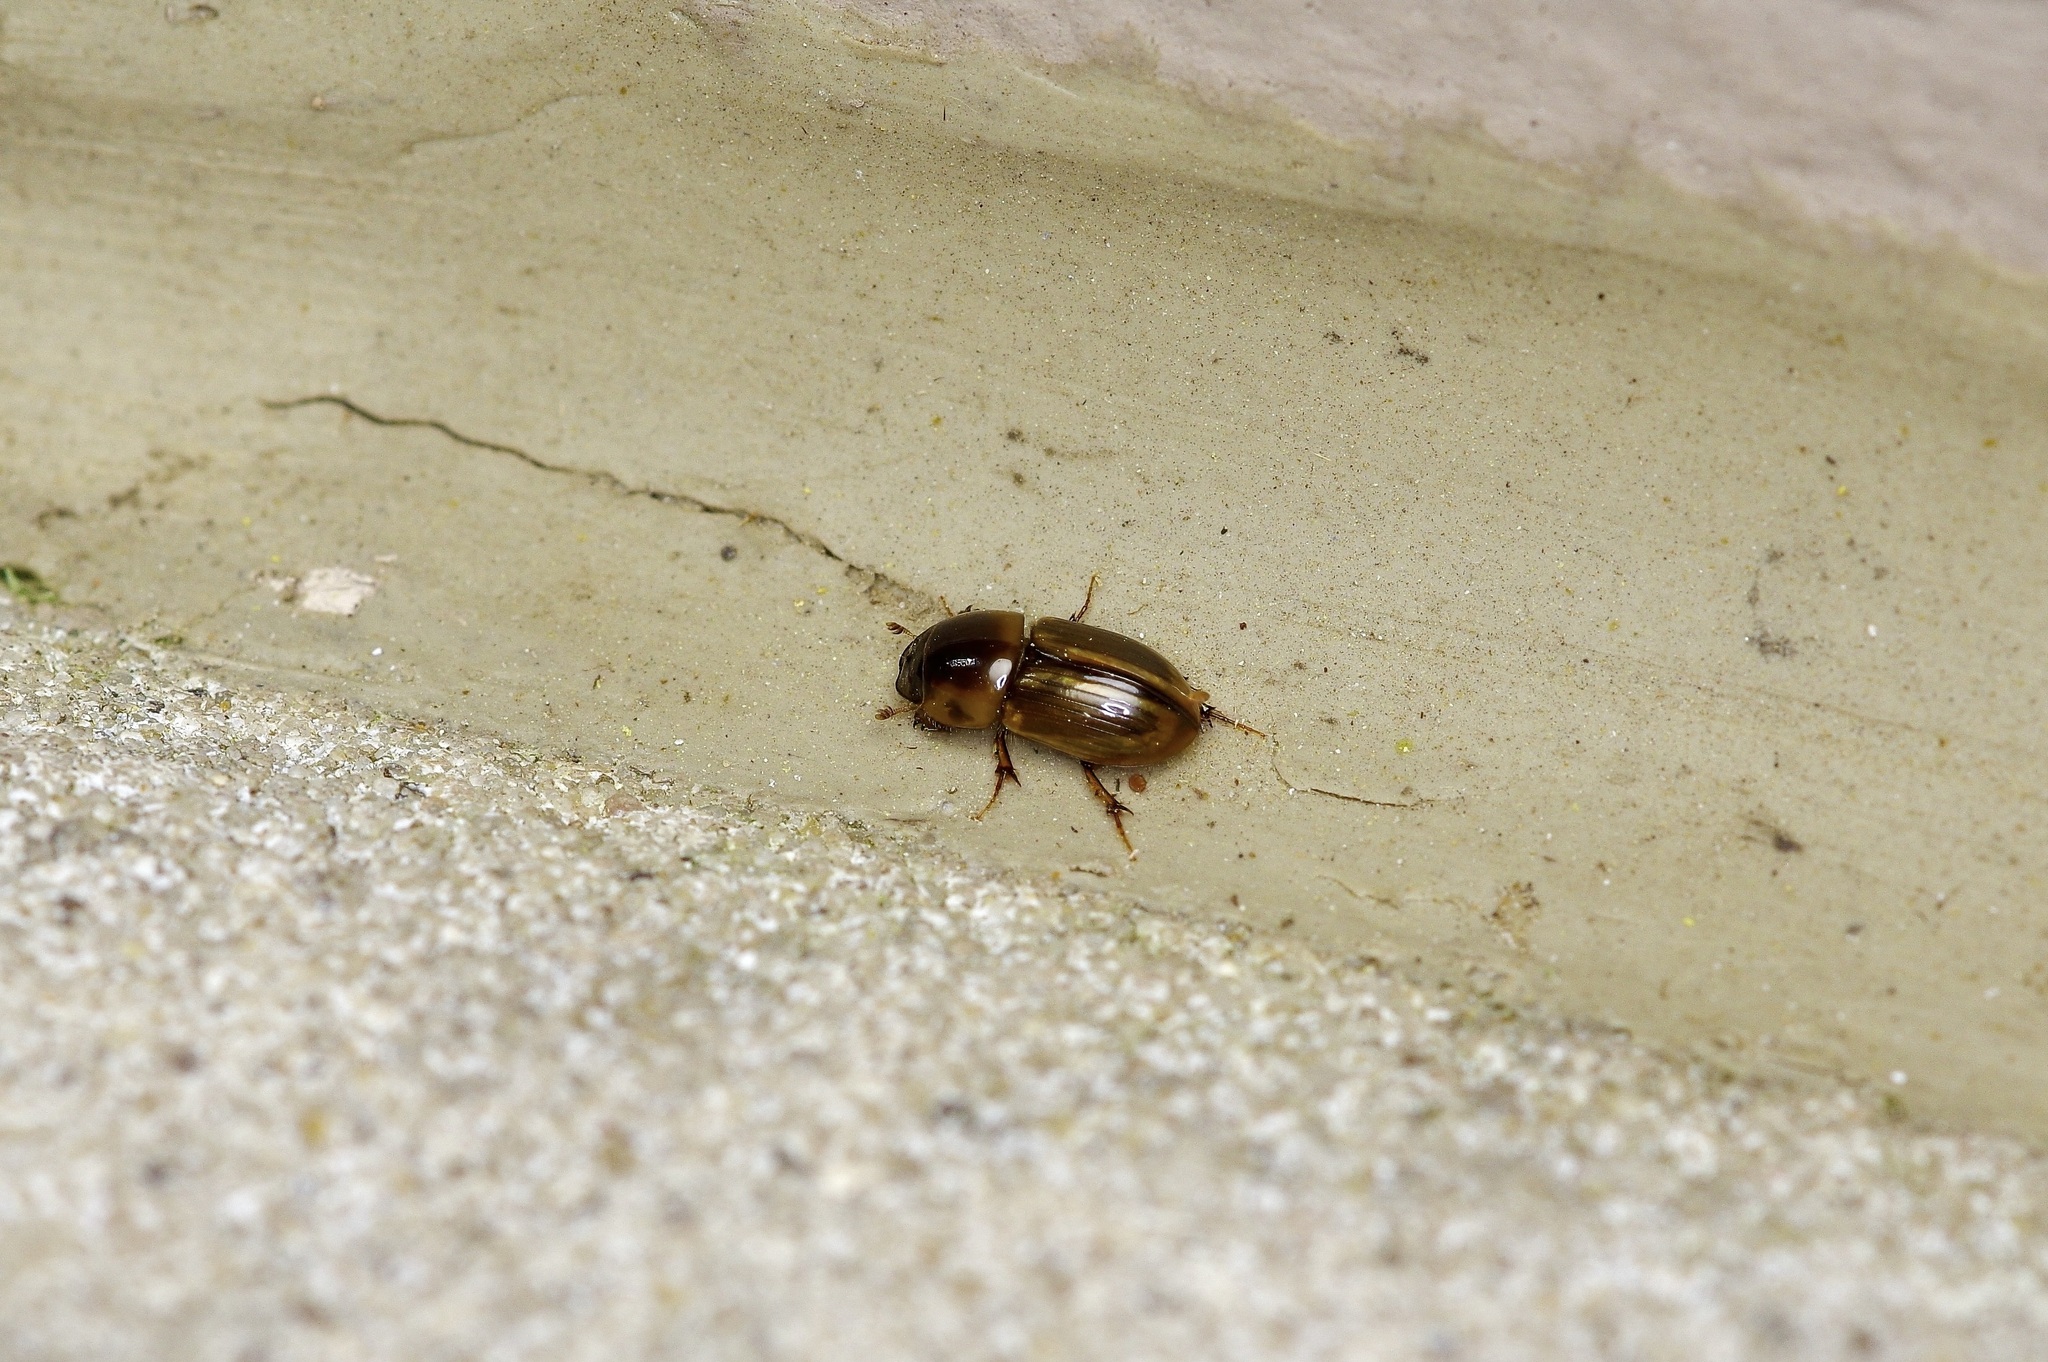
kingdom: Animalia
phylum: Arthropoda
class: Insecta
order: Coleoptera
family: Scarabaeidae
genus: Labarrus
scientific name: Labarrus lividus
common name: Scarab beetle
